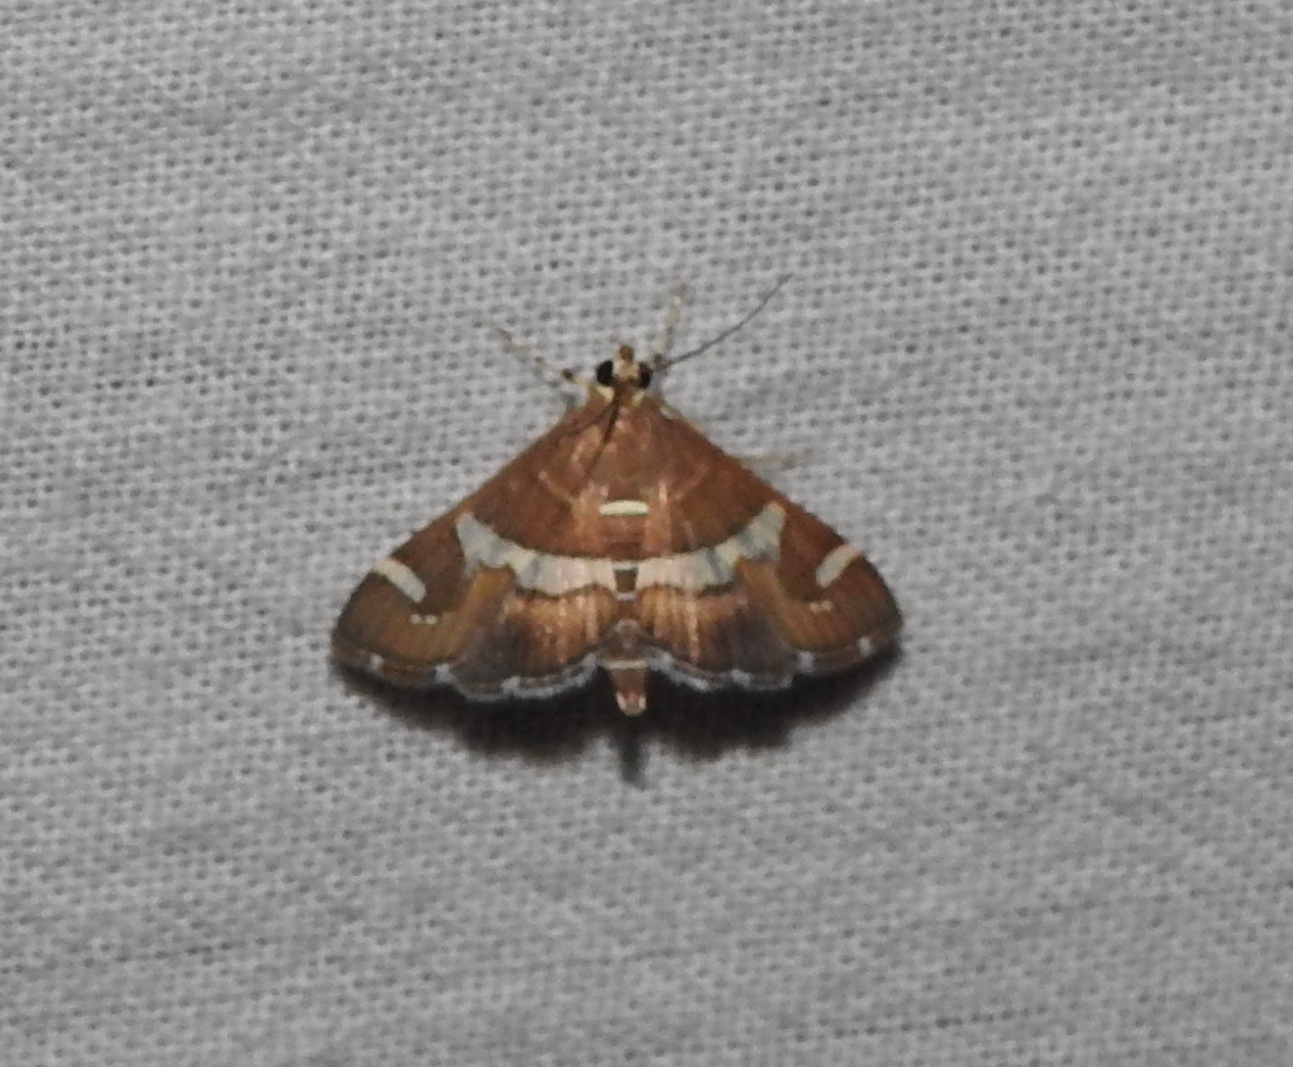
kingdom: Animalia
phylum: Arthropoda
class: Insecta
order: Lepidoptera
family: Crambidae
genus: Spoladea
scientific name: Spoladea recurvalis
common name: Beet webworm moth
